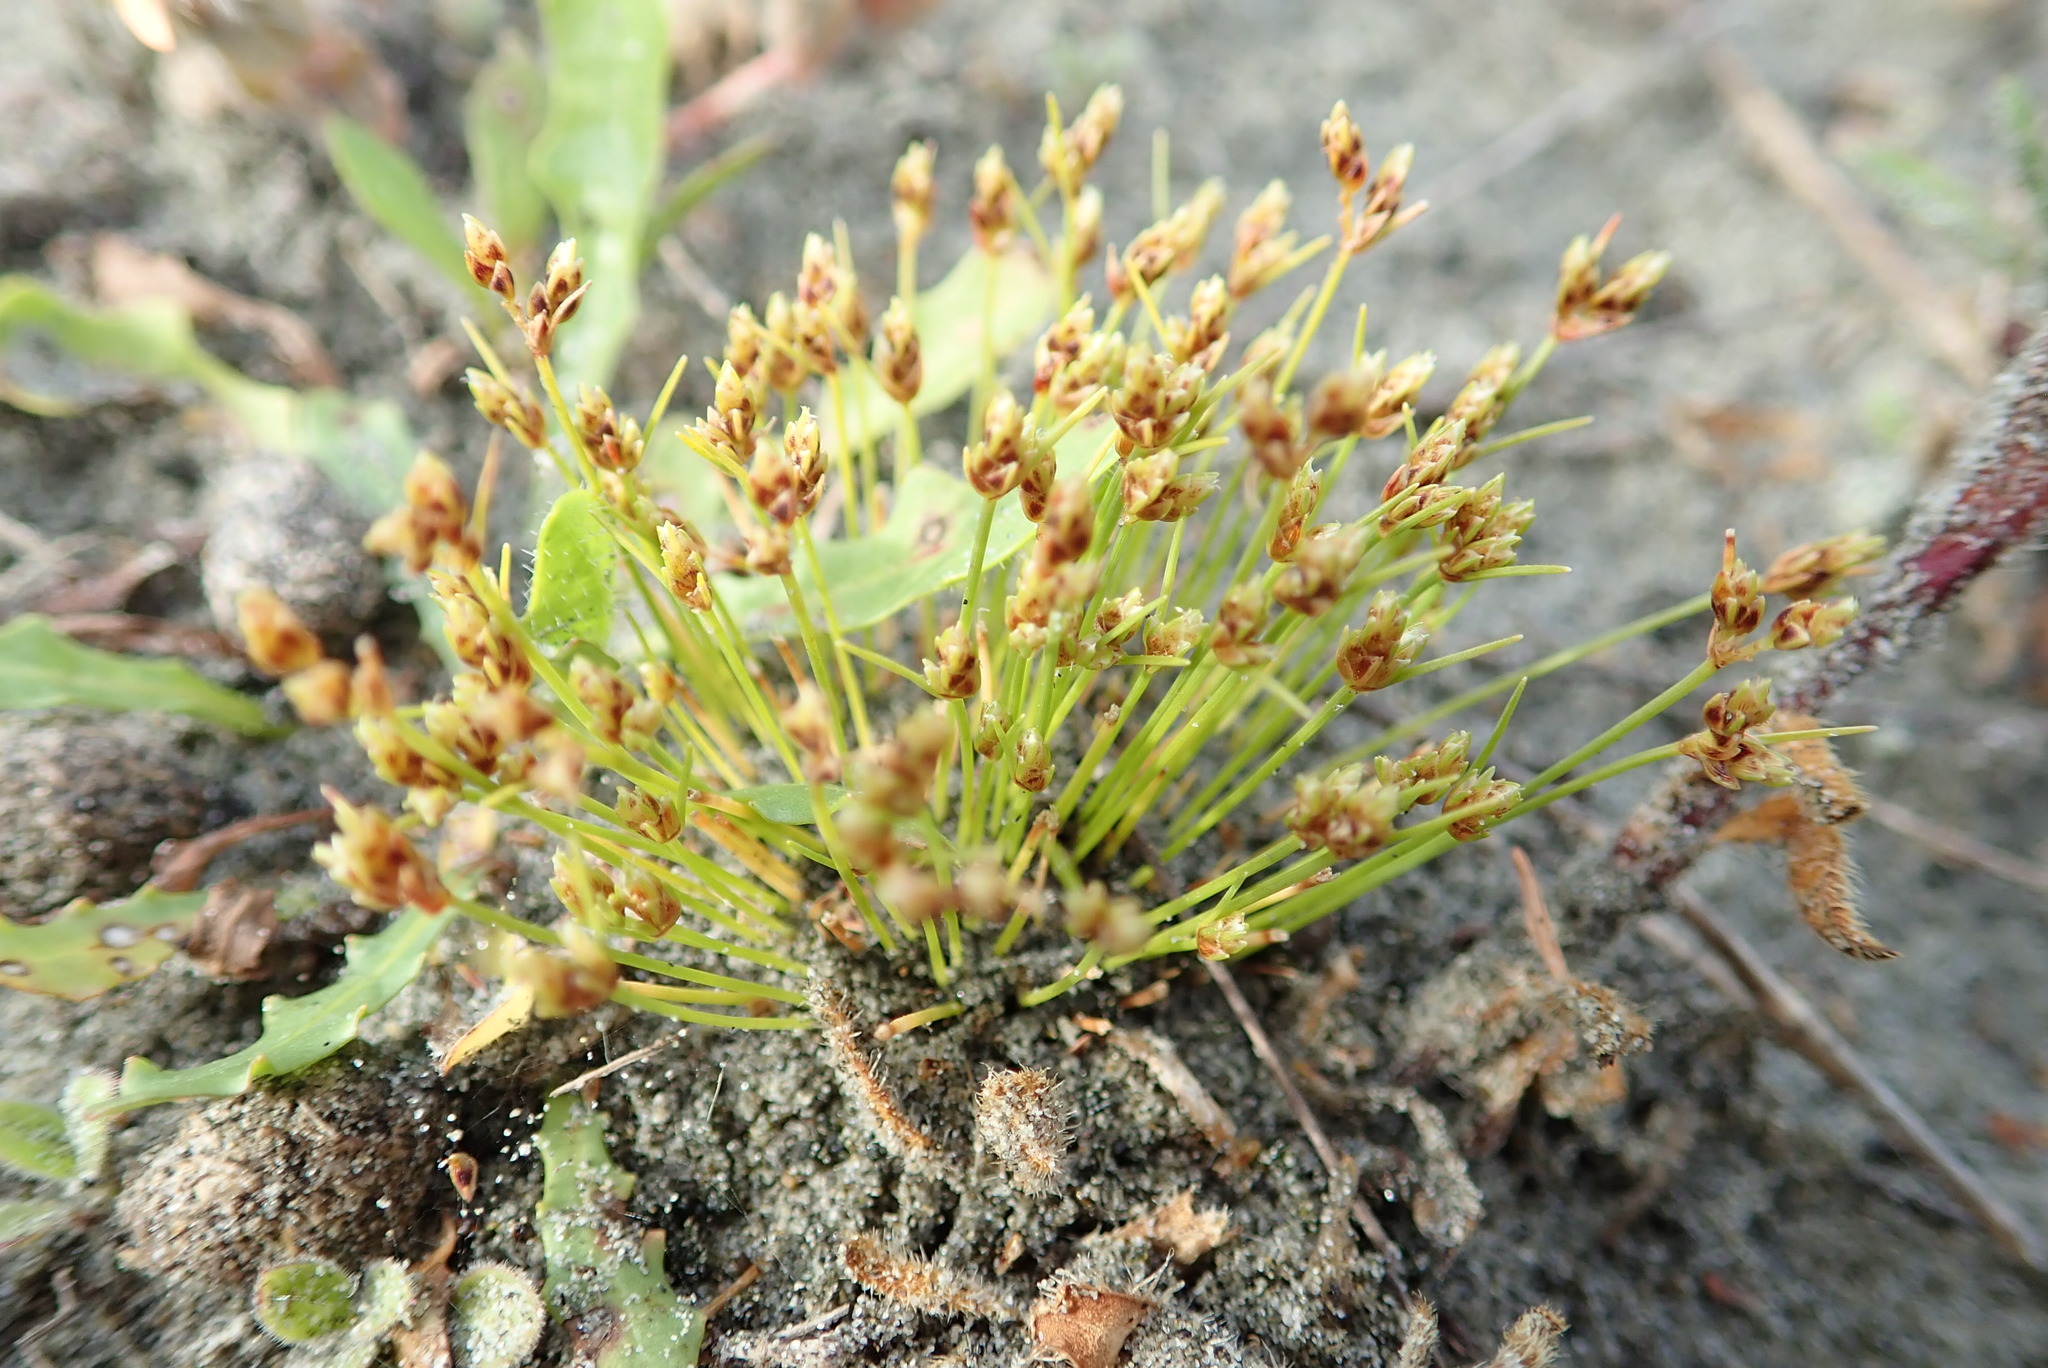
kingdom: Plantae
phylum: Tracheophyta
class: Liliopsida
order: Poales
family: Cyperaceae
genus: Isolepis
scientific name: Isolepis cernua
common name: Slender club-rush
